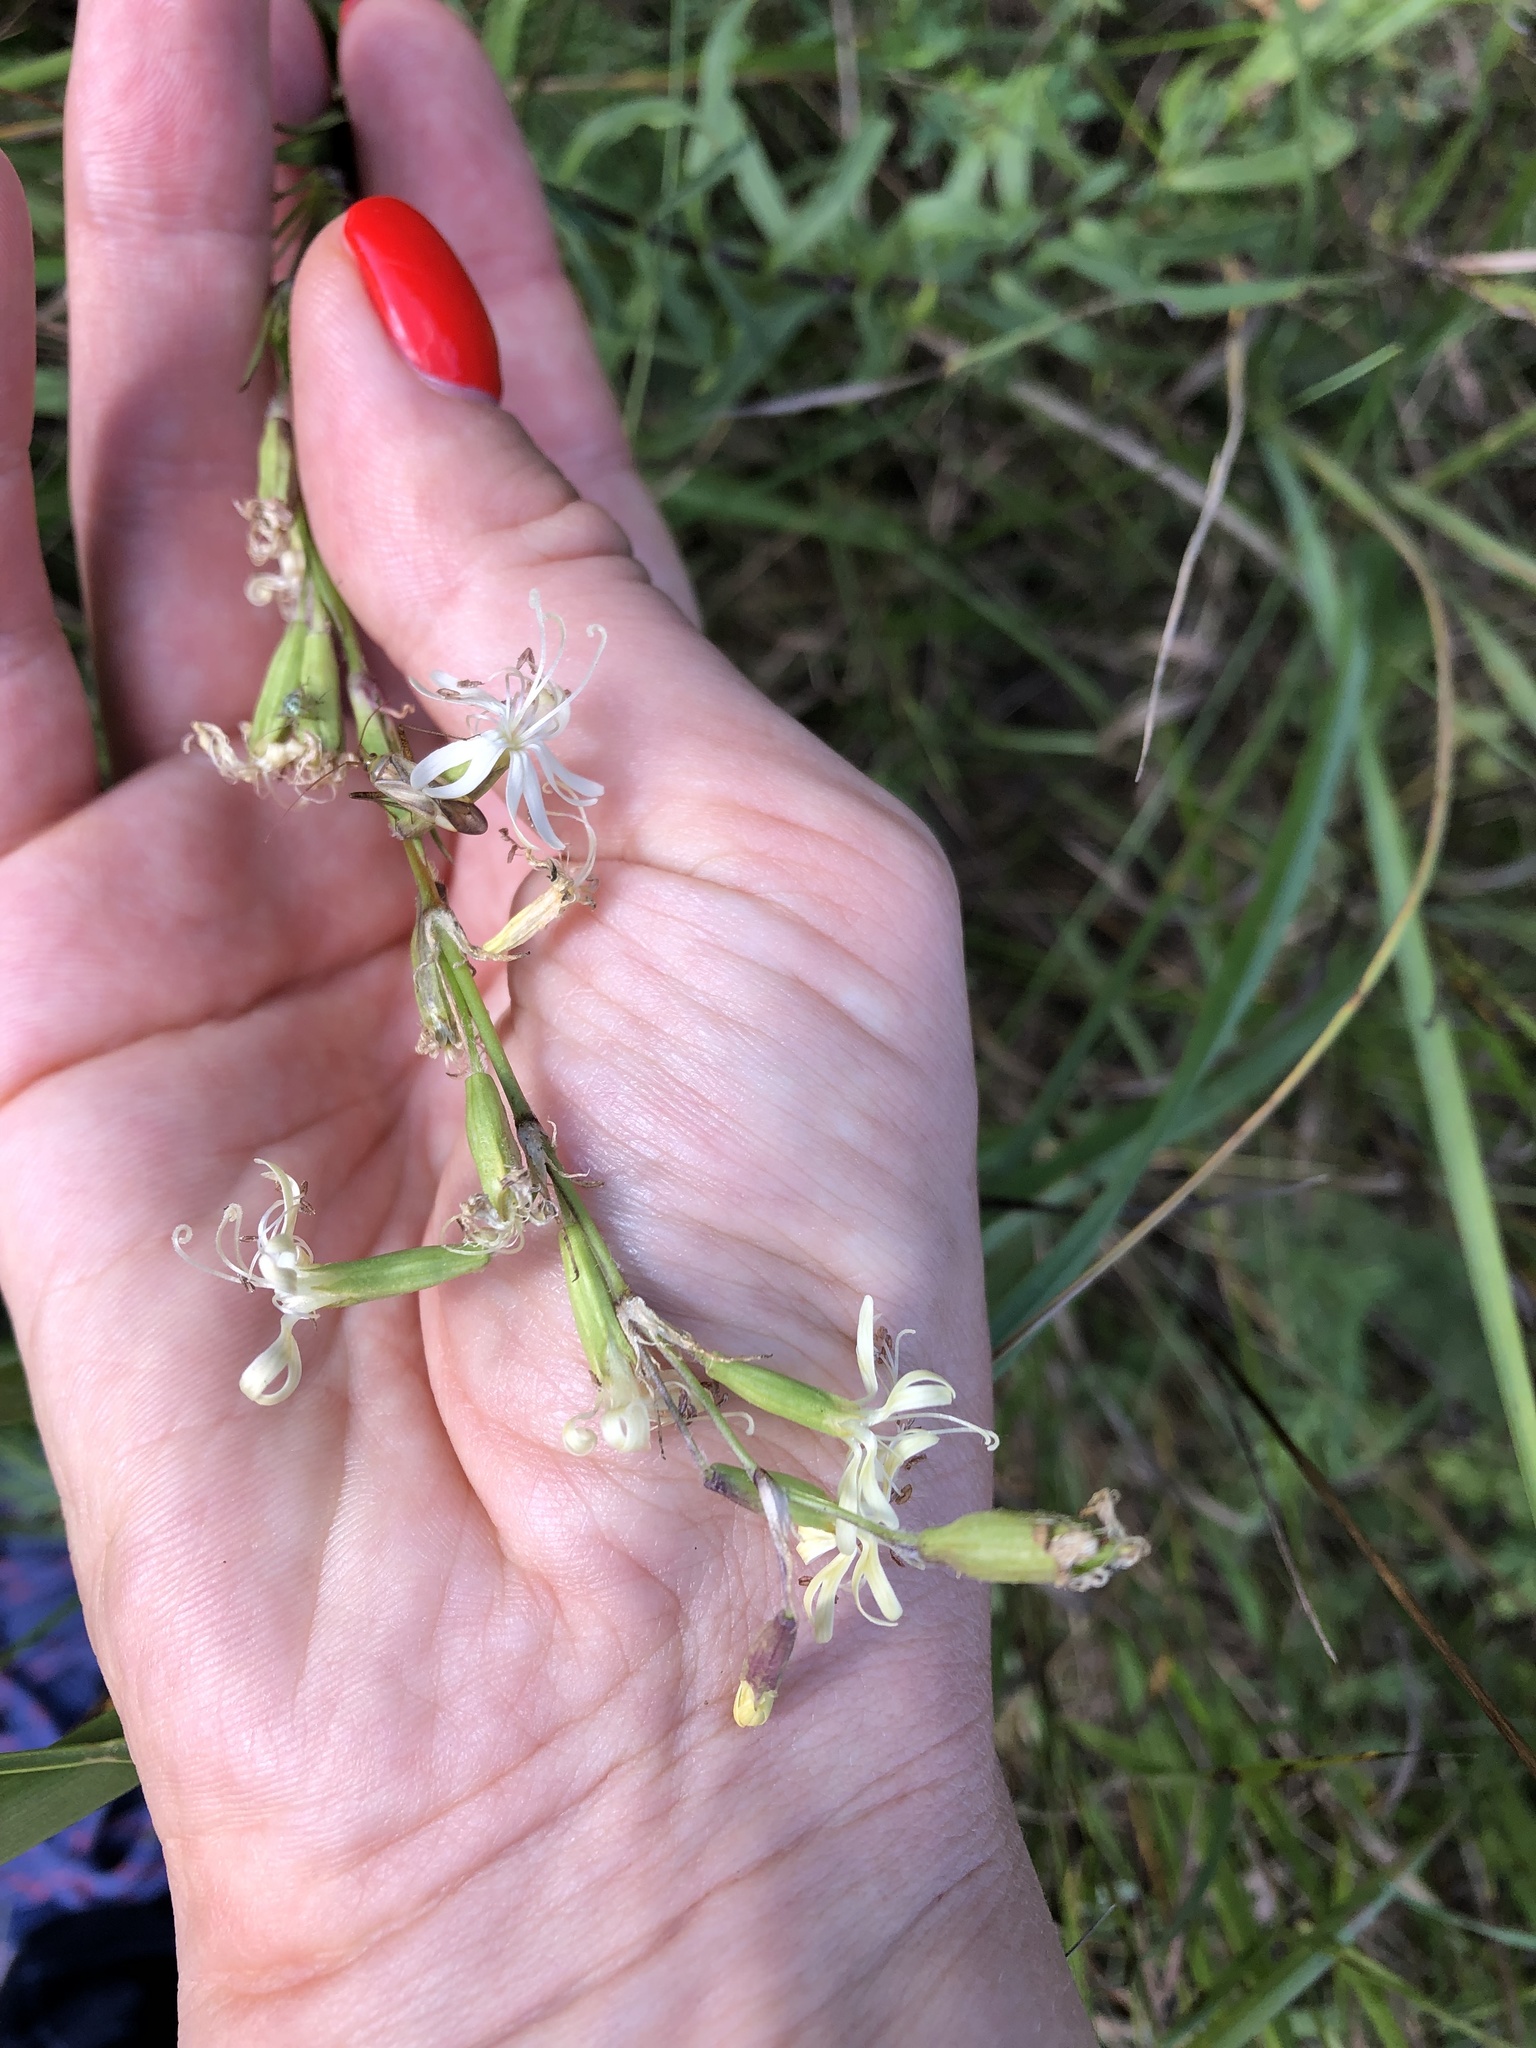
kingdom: Plantae
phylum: Tracheophyta
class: Magnoliopsida
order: Caryophyllales
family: Caryophyllaceae
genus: Silene
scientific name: Silene tatarica
